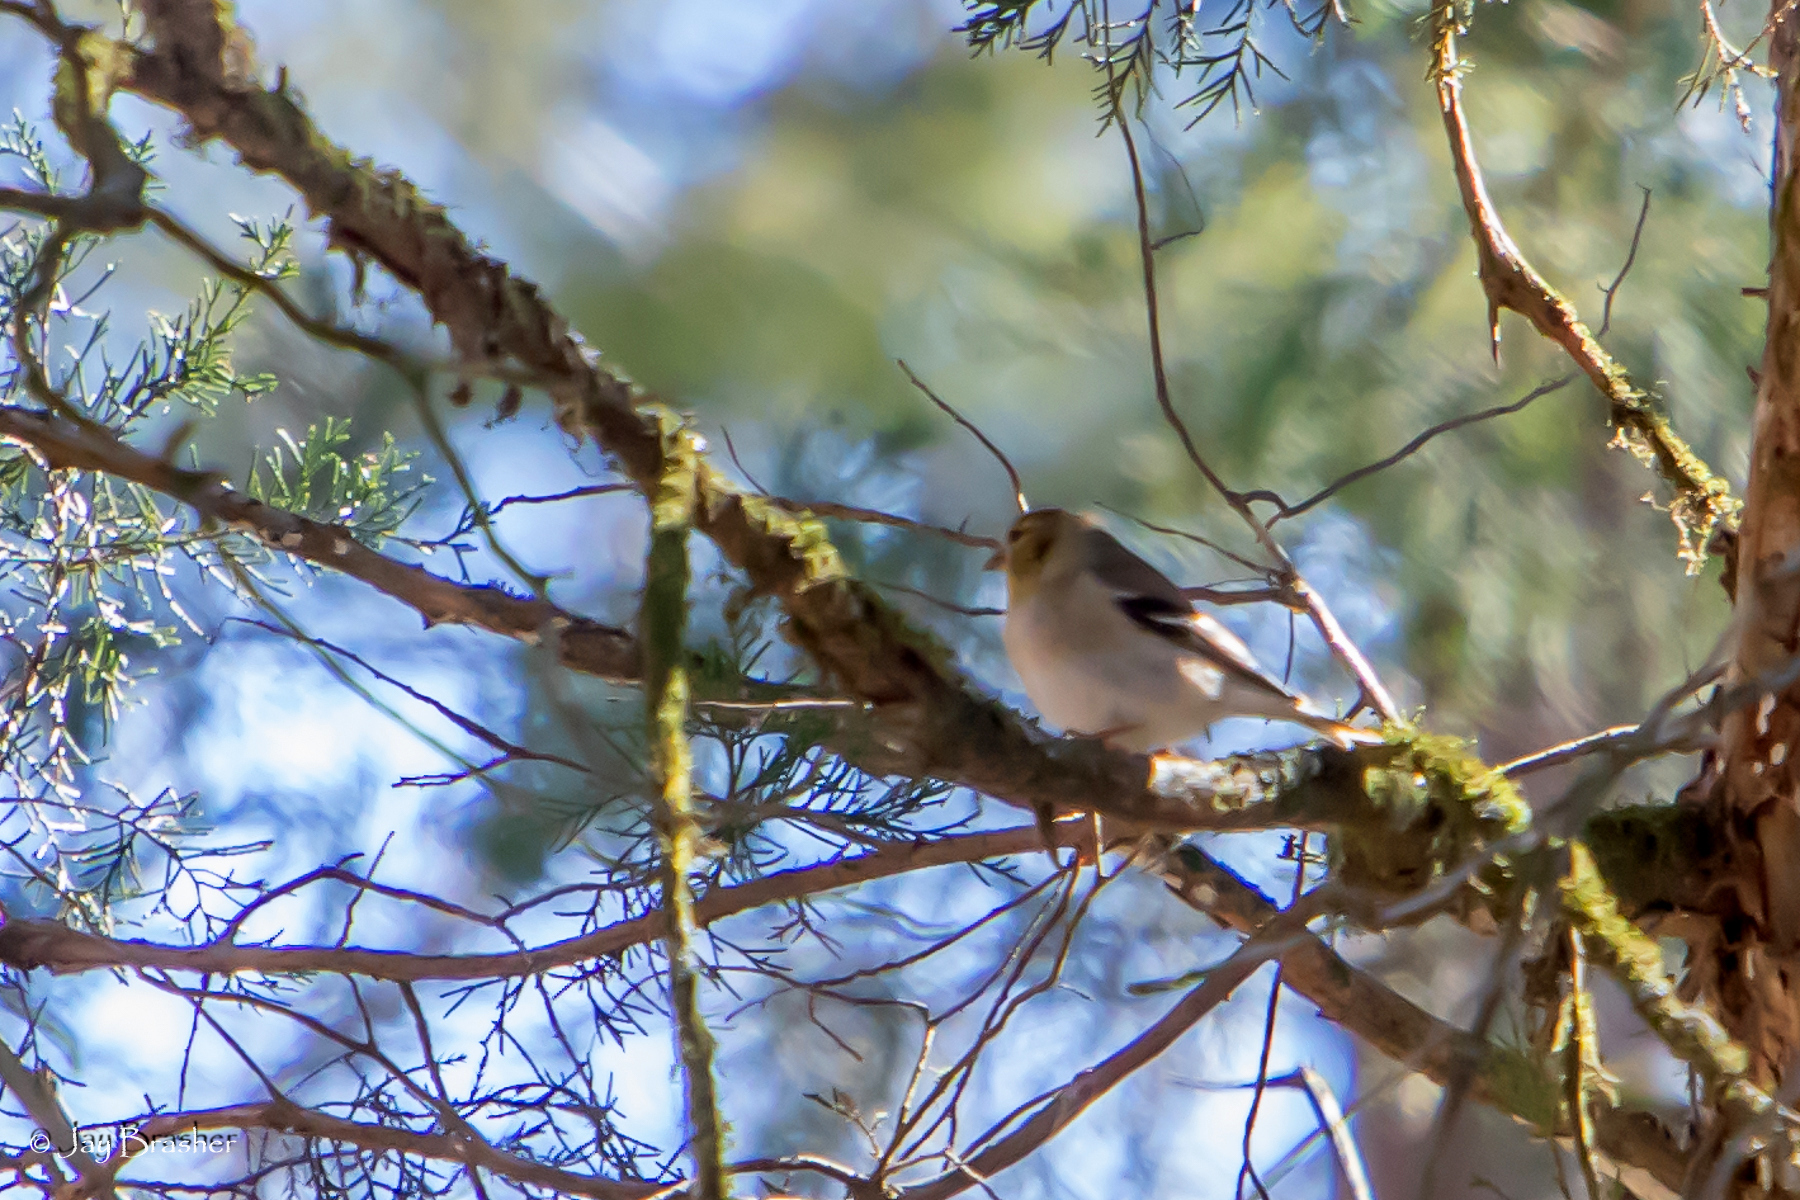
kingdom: Animalia
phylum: Chordata
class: Aves
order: Passeriformes
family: Fringillidae
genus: Spinus
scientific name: Spinus tristis
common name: American goldfinch
